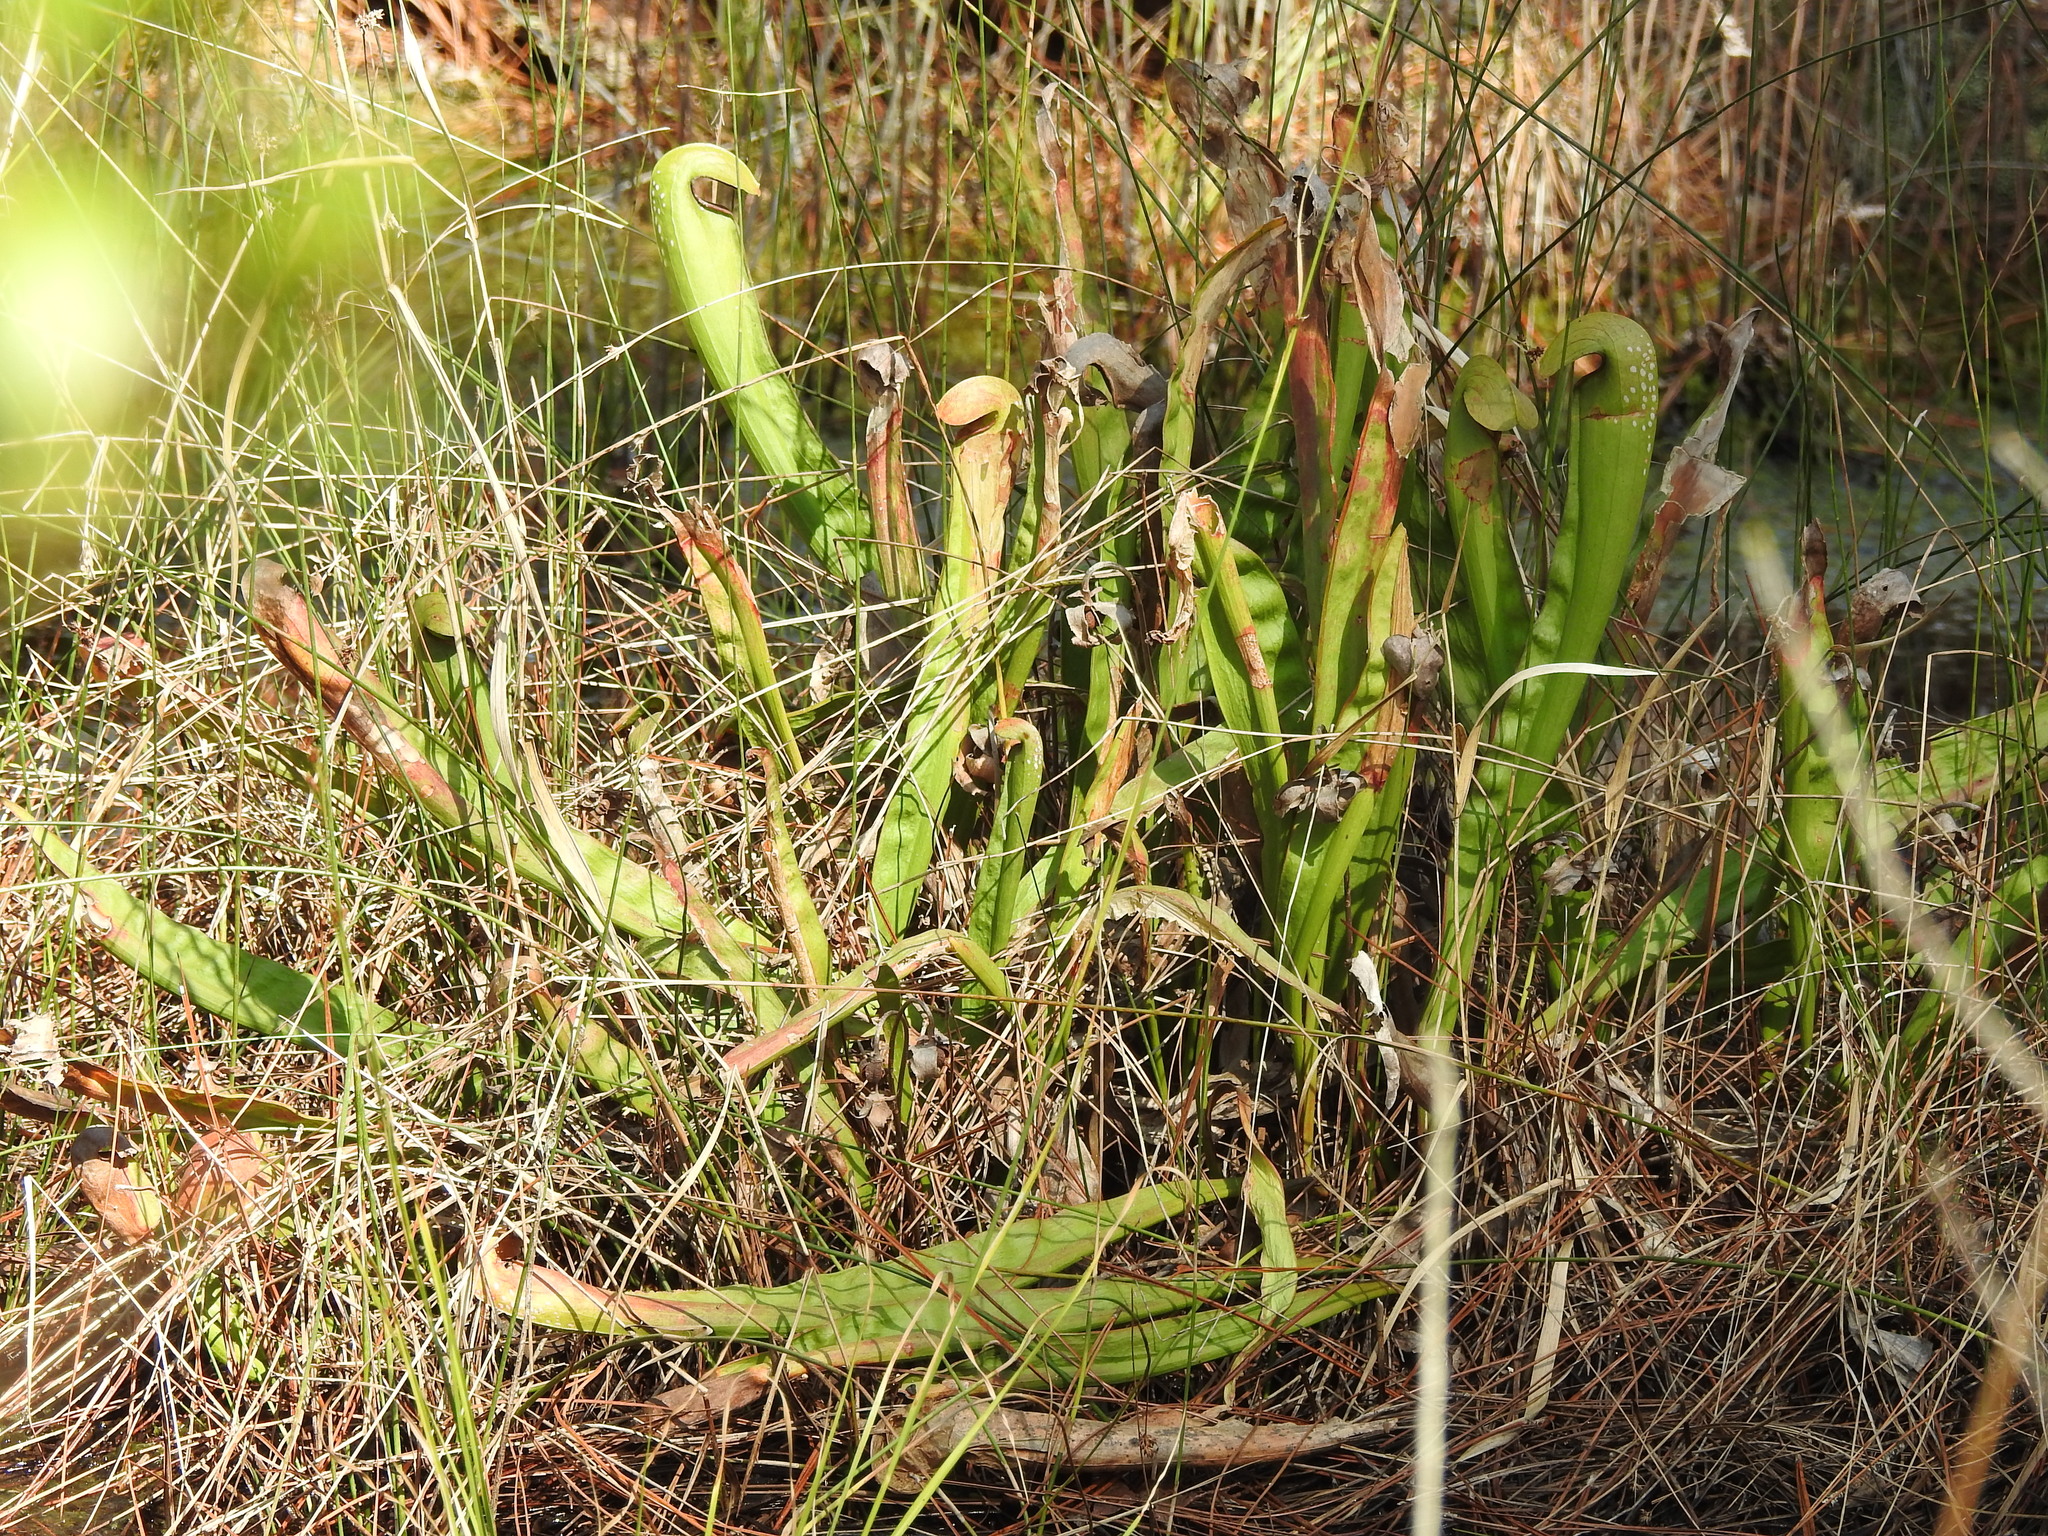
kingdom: Plantae
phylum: Tracheophyta
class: Magnoliopsida
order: Ericales
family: Sarraceniaceae
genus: Sarracenia
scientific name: Sarracenia minor
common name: Rainhat-trumpet
